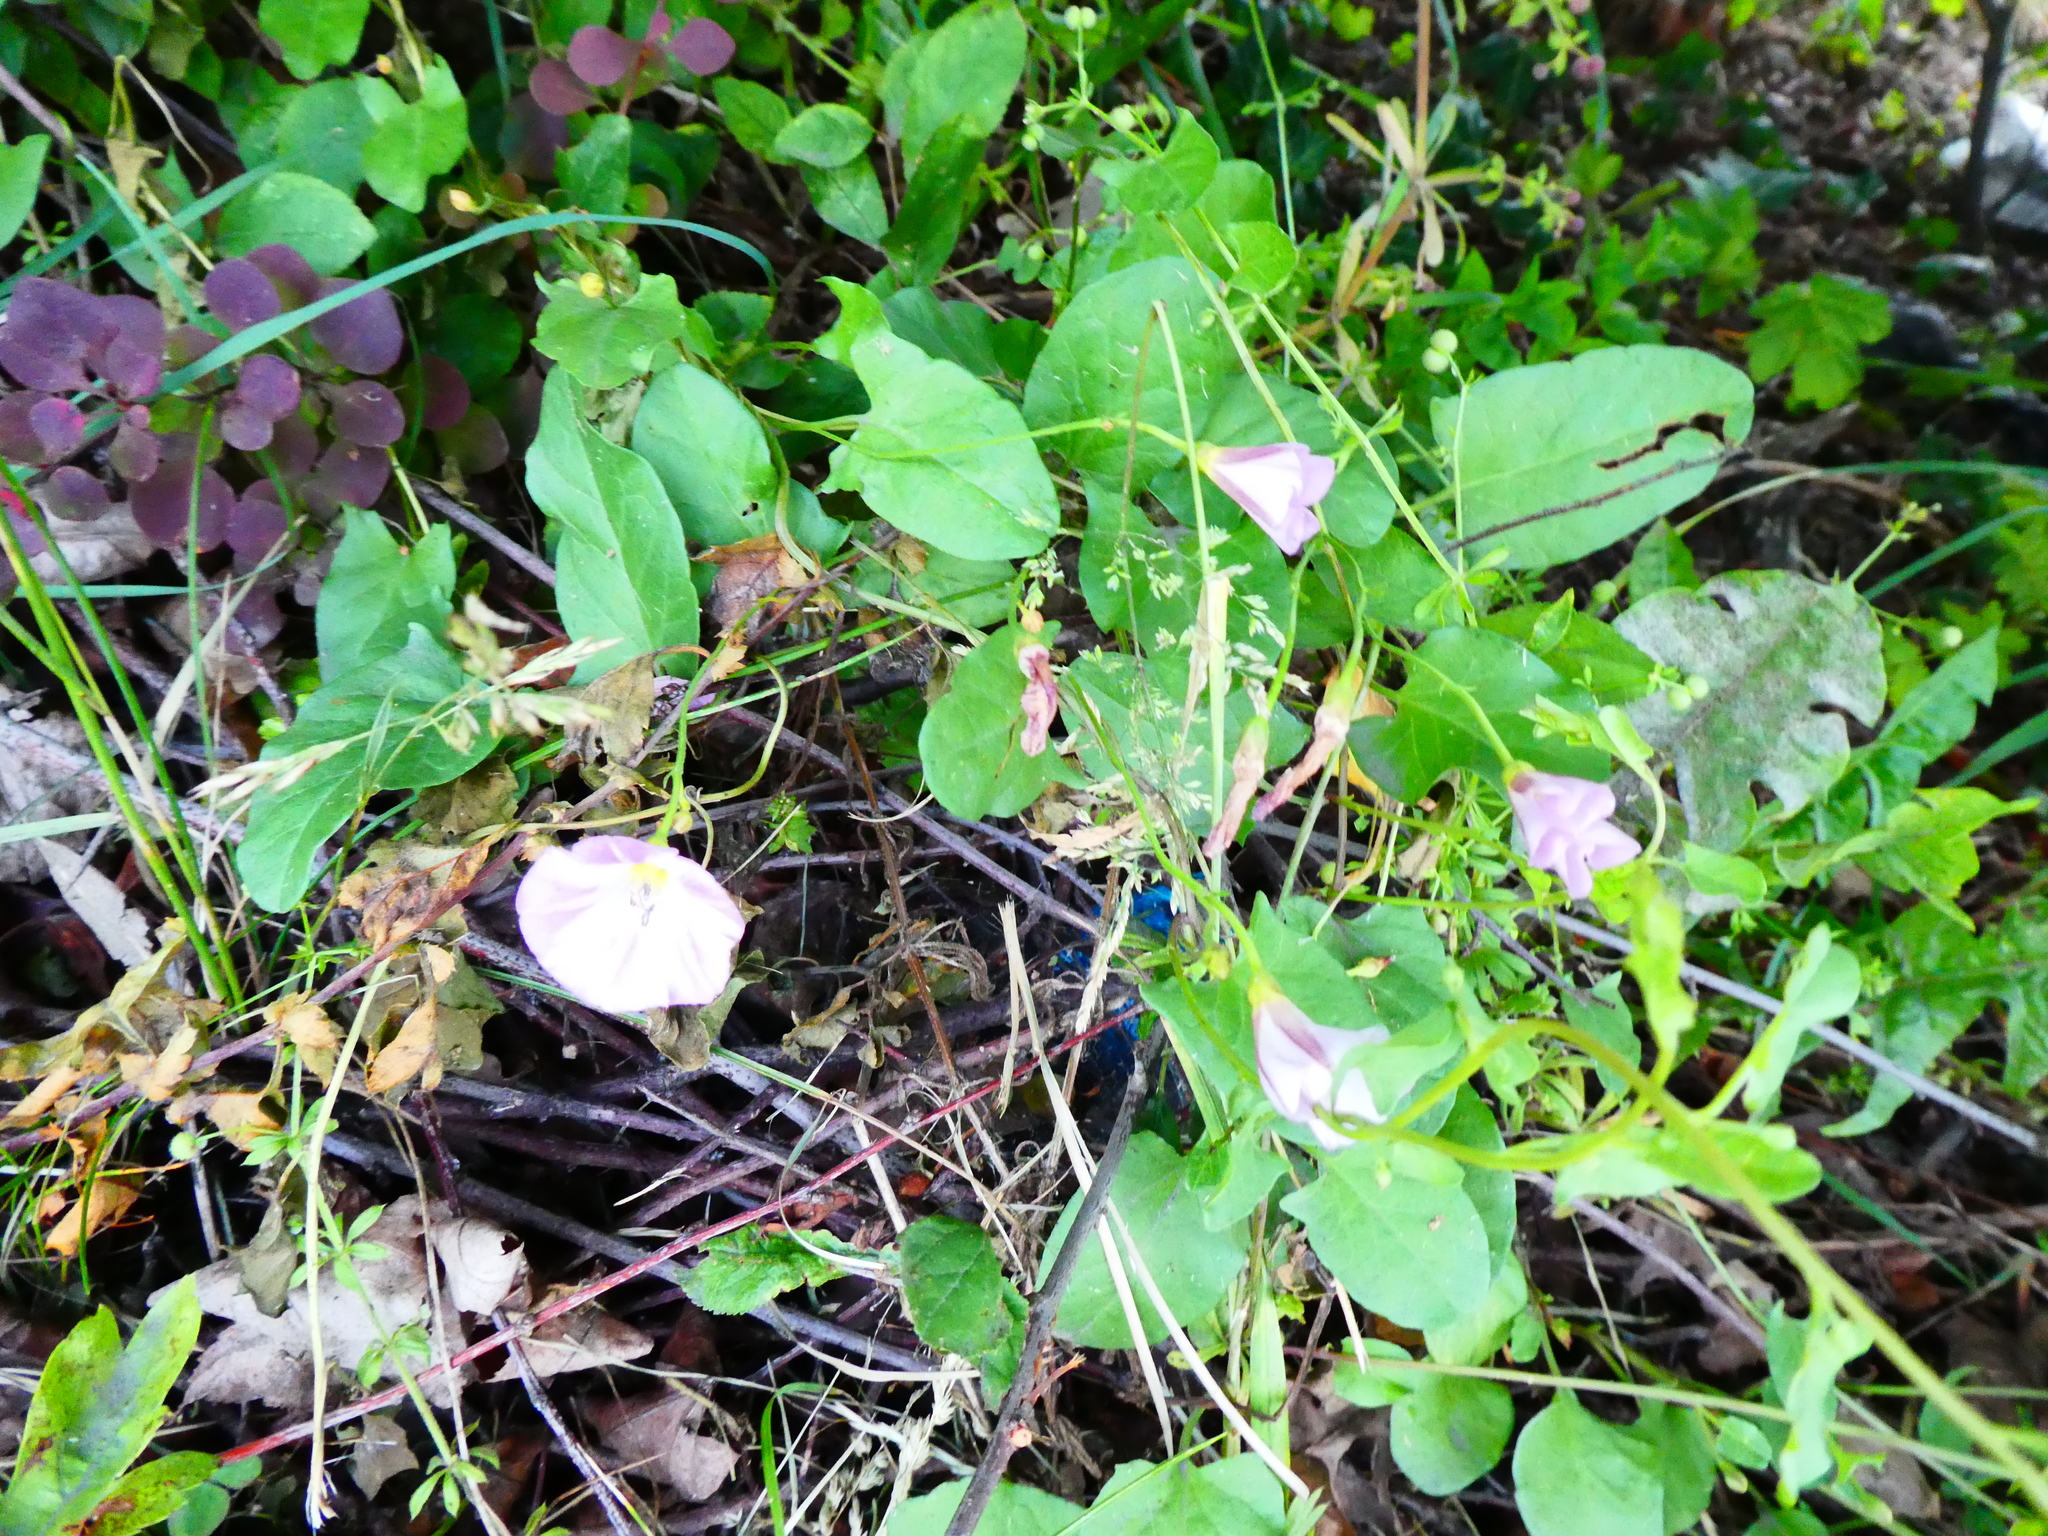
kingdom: Plantae
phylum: Tracheophyta
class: Magnoliopsida
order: Solanales
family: Convolvulaceae
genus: Convolvulus
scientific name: Convolvulus arvensis
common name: Field bindweed
